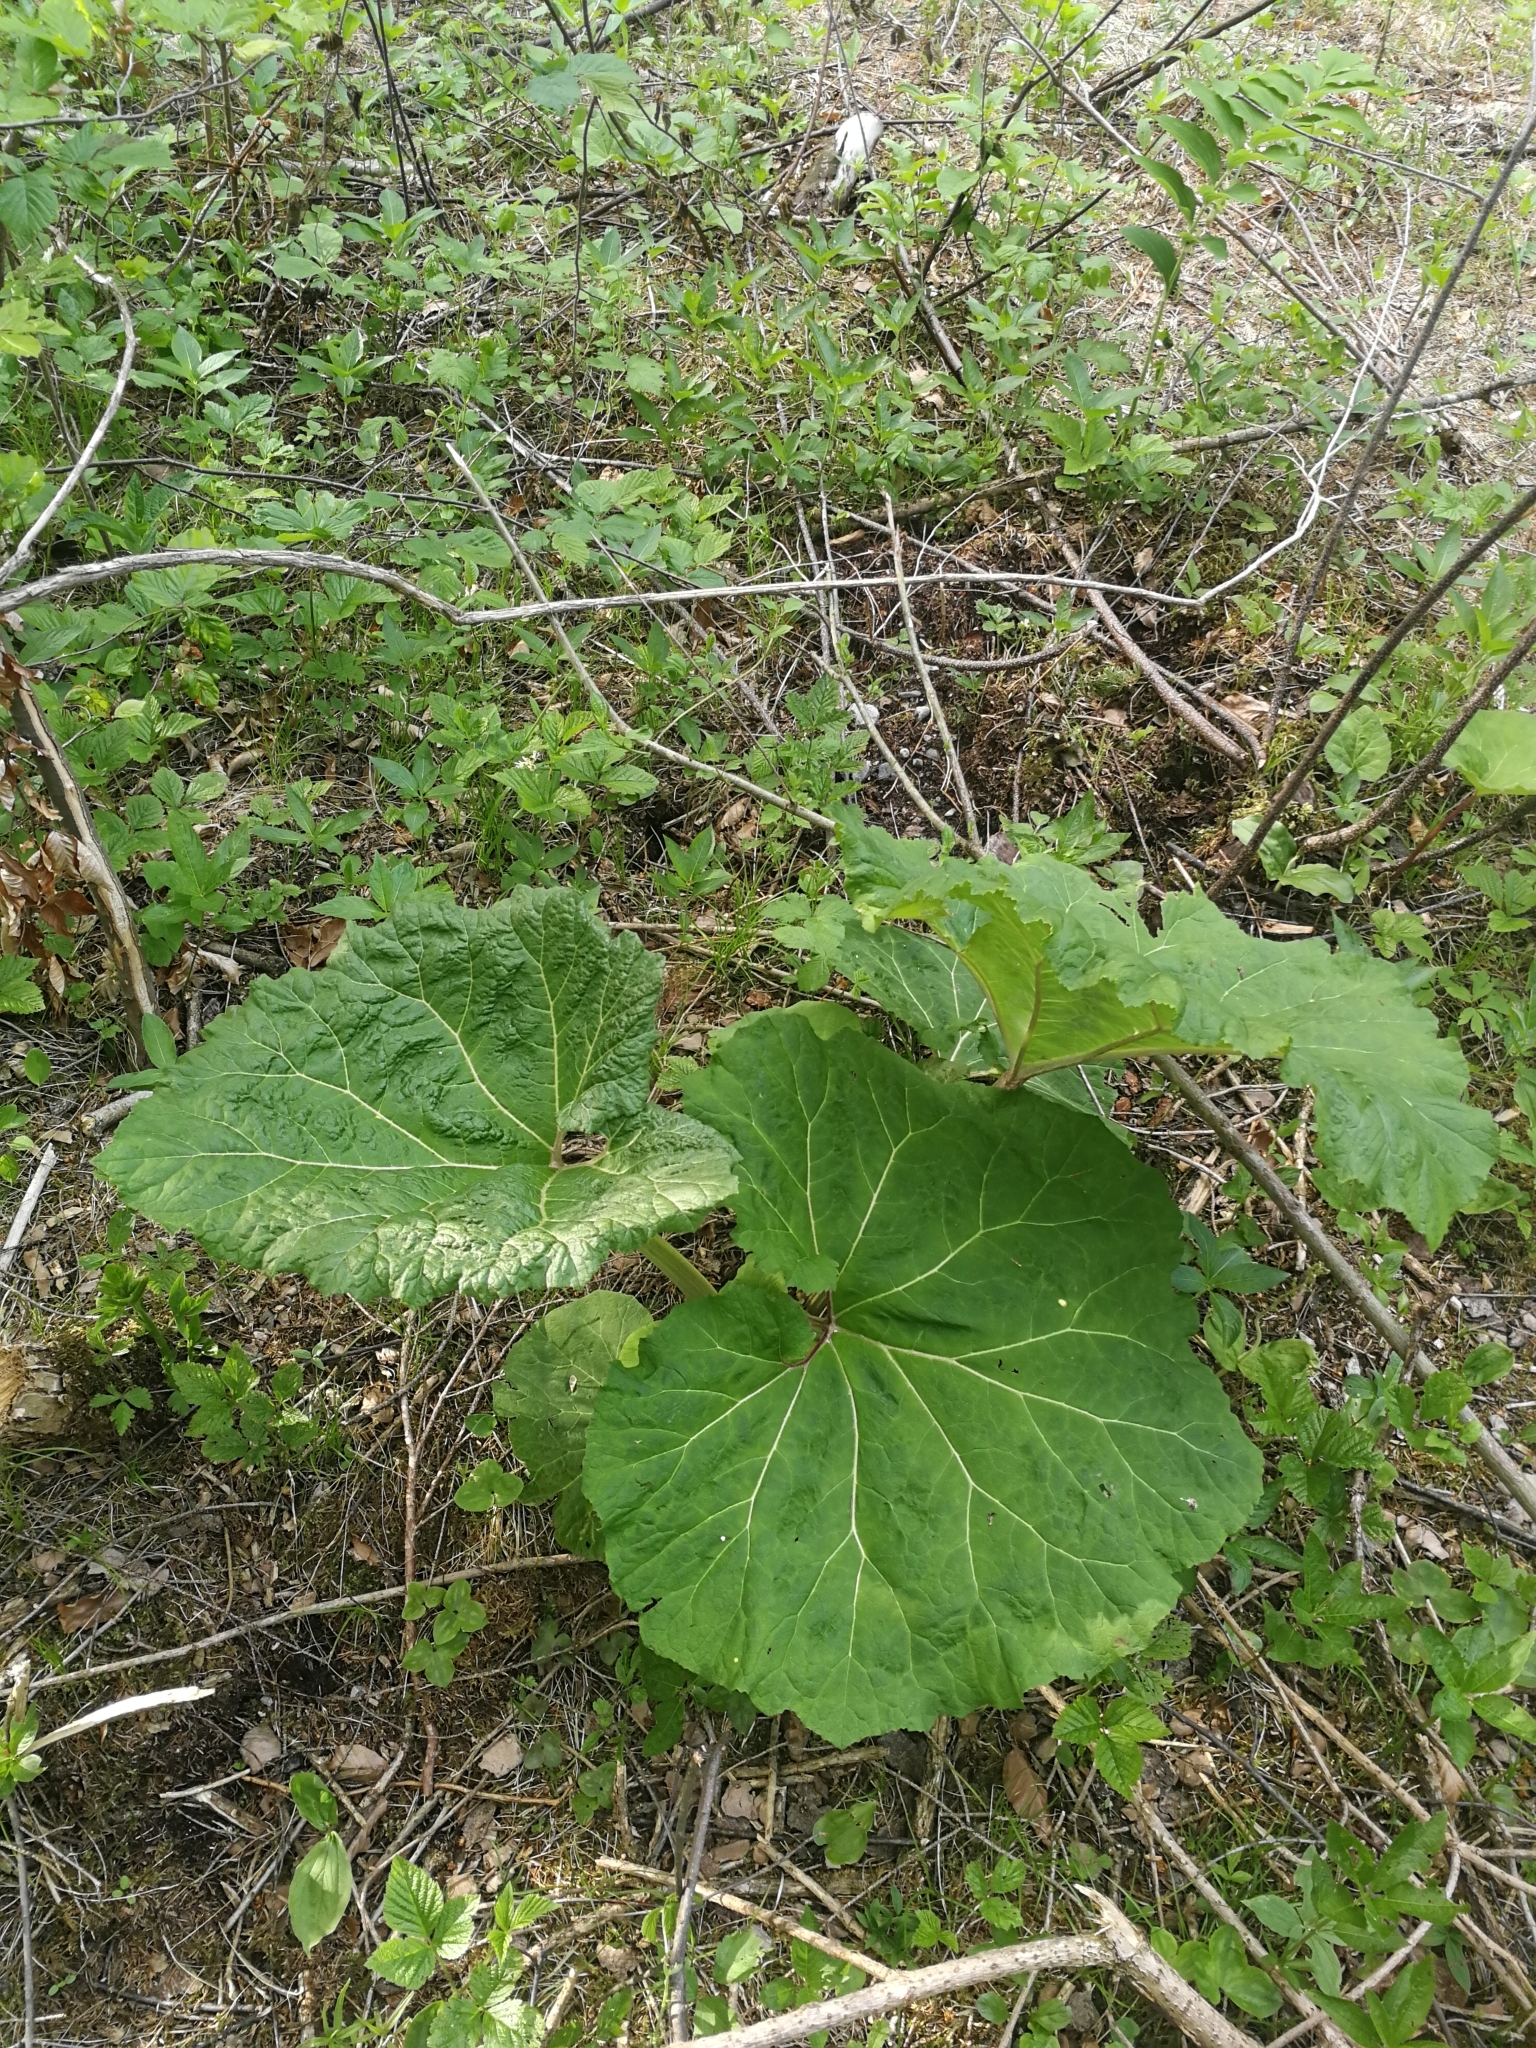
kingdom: Plantae
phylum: Tracheophyta
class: Magnoliopsida
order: Asterales
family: Asteraceae
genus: Petasites
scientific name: Petasites hybridus
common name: Butterbur
